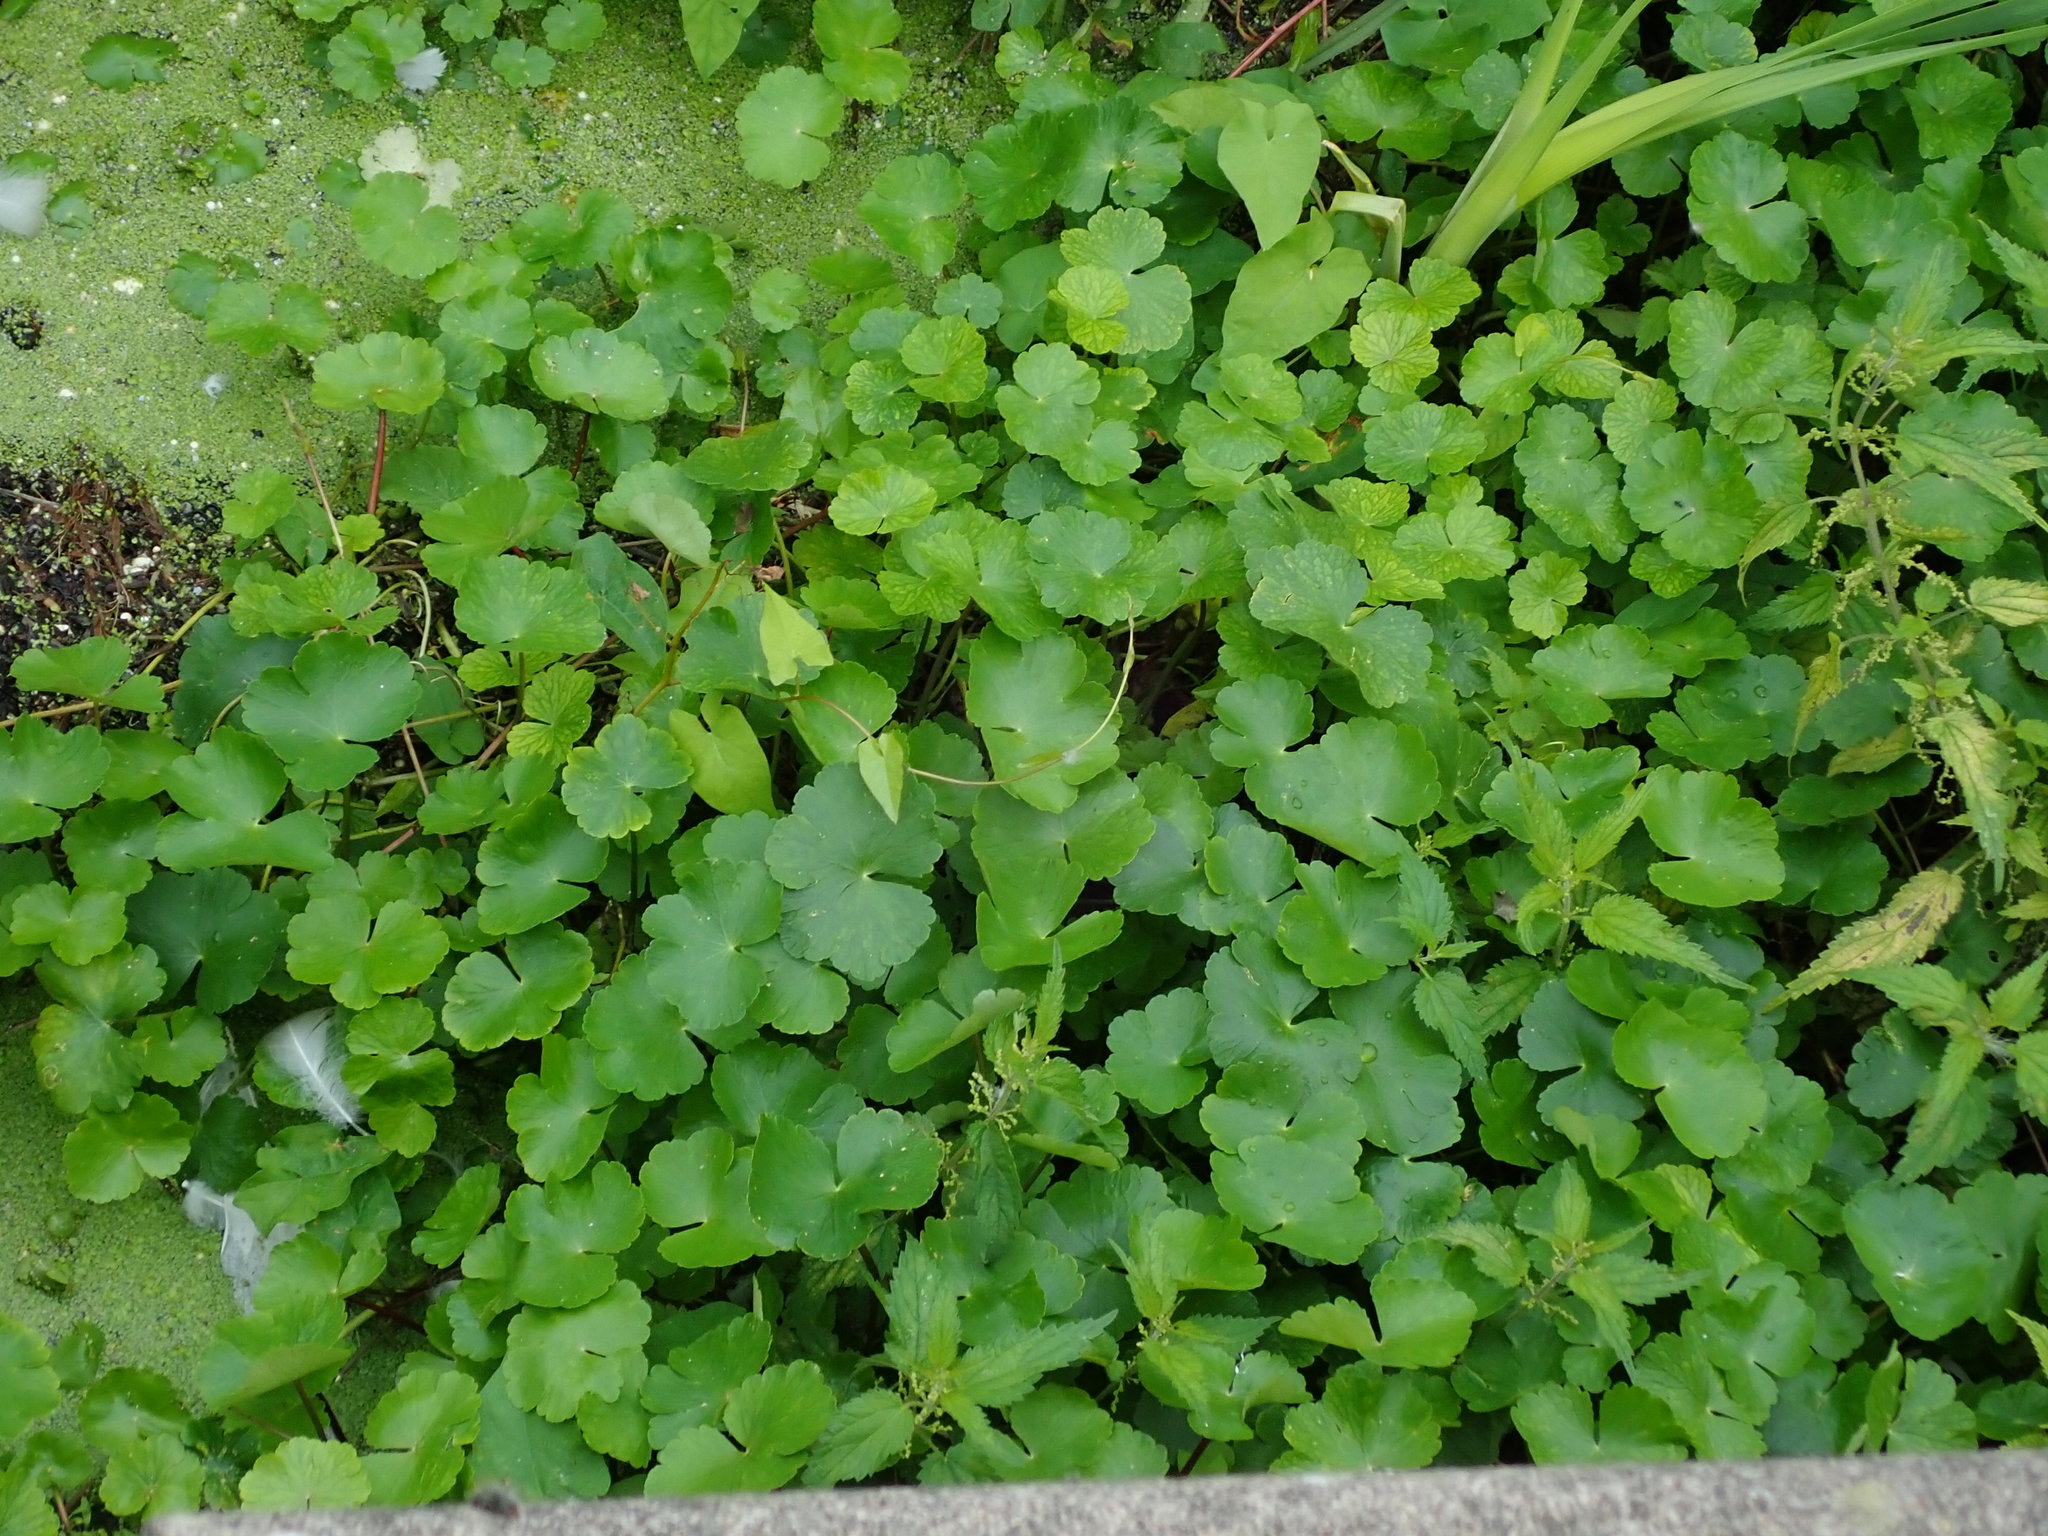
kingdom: Plantae
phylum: Tracheophyta
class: Magnoliopsida
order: Apiales
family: Araliaceae
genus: Hydrocotyle
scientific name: Hydrocotyle ranunculoides
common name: Floating pennywort
